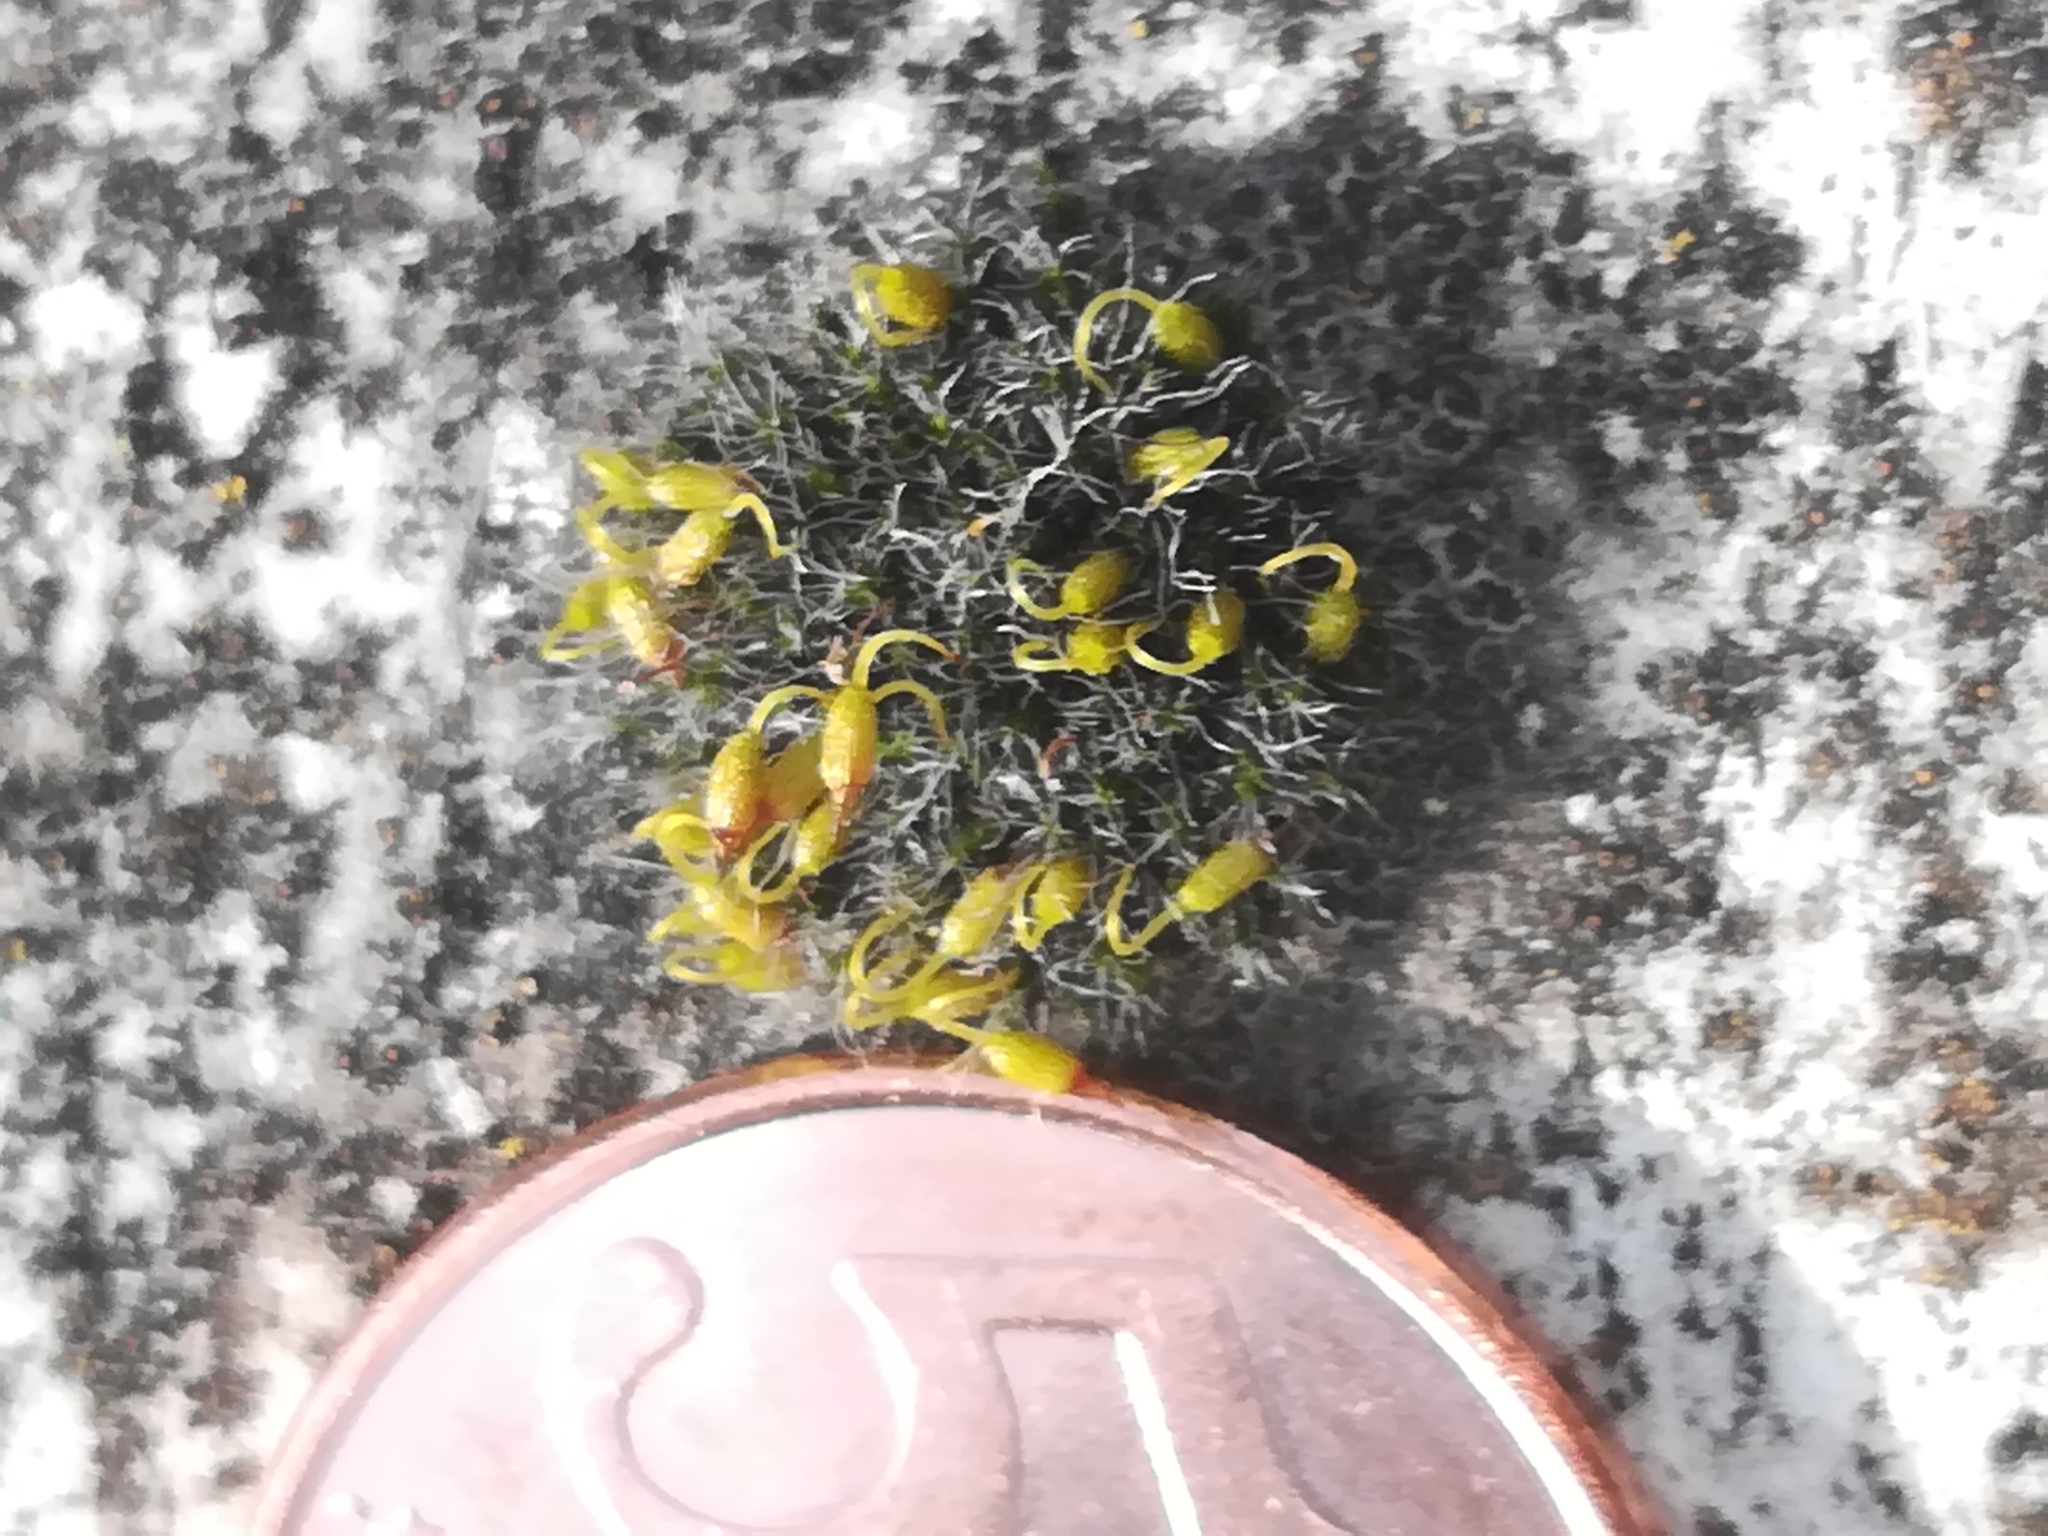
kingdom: Plantae
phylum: Bryophyta
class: Bryopsida
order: Grimmiales
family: Grimmiaceae
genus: Grimmia
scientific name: Grimmia pulvinata
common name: Grey-cushioned grimmia
